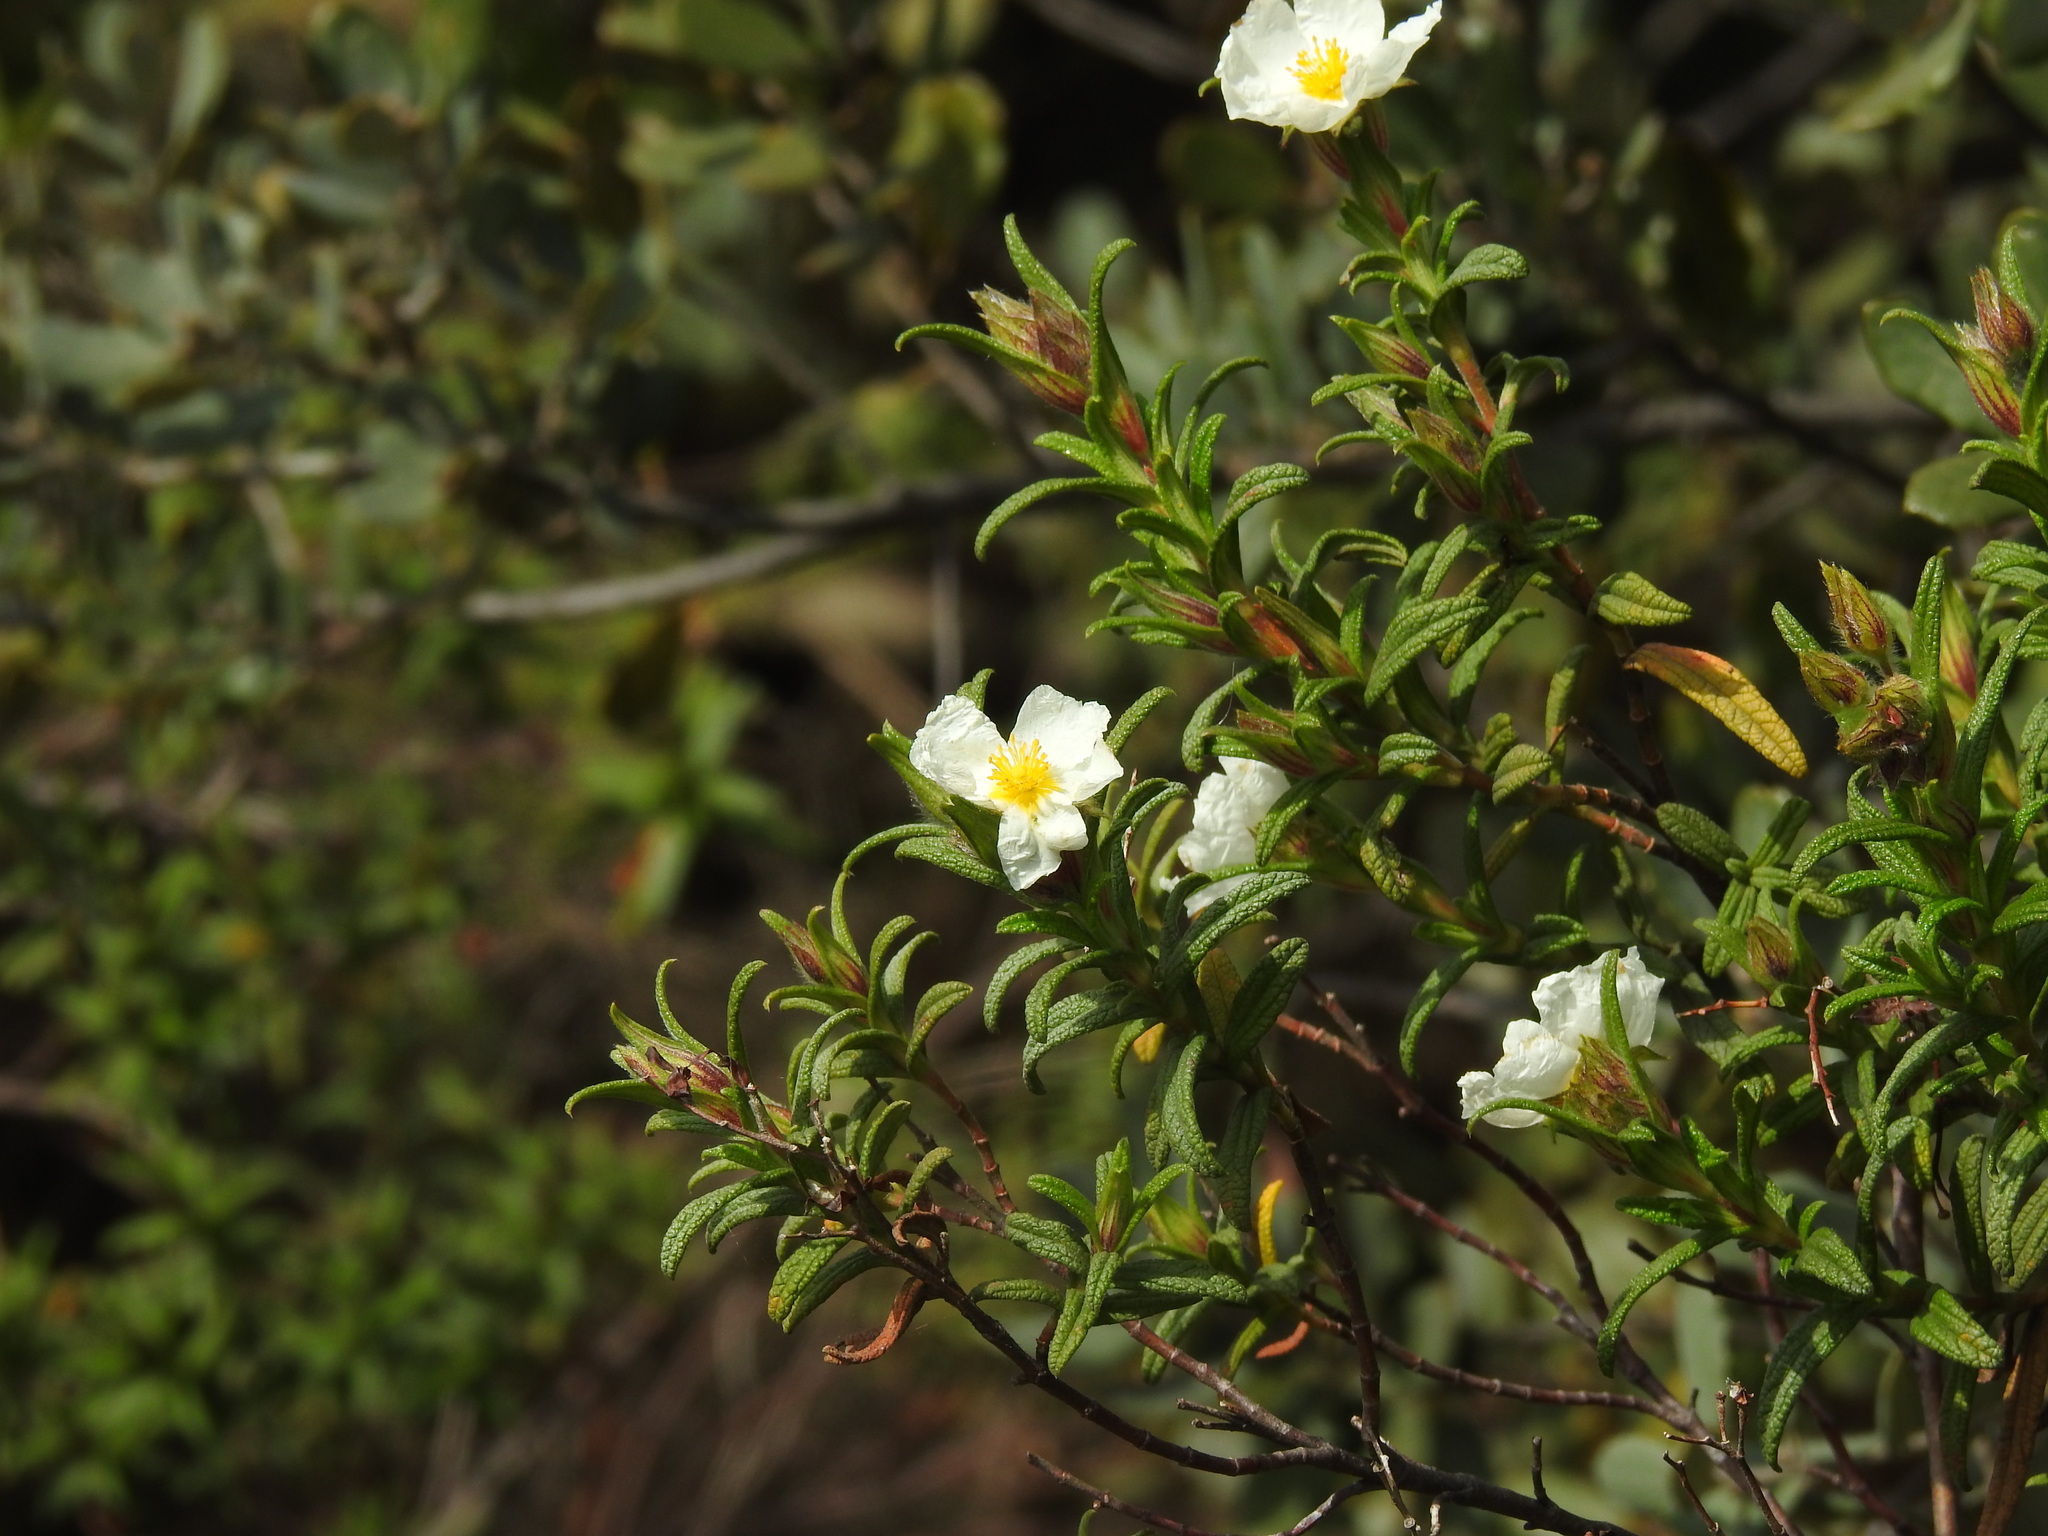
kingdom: Plantae
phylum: Tracheophyta
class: Magnoliopsida
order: Malvales
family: Cistaceae
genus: Cistus
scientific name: Cistus monspeliensis
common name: Montpelier cistus
